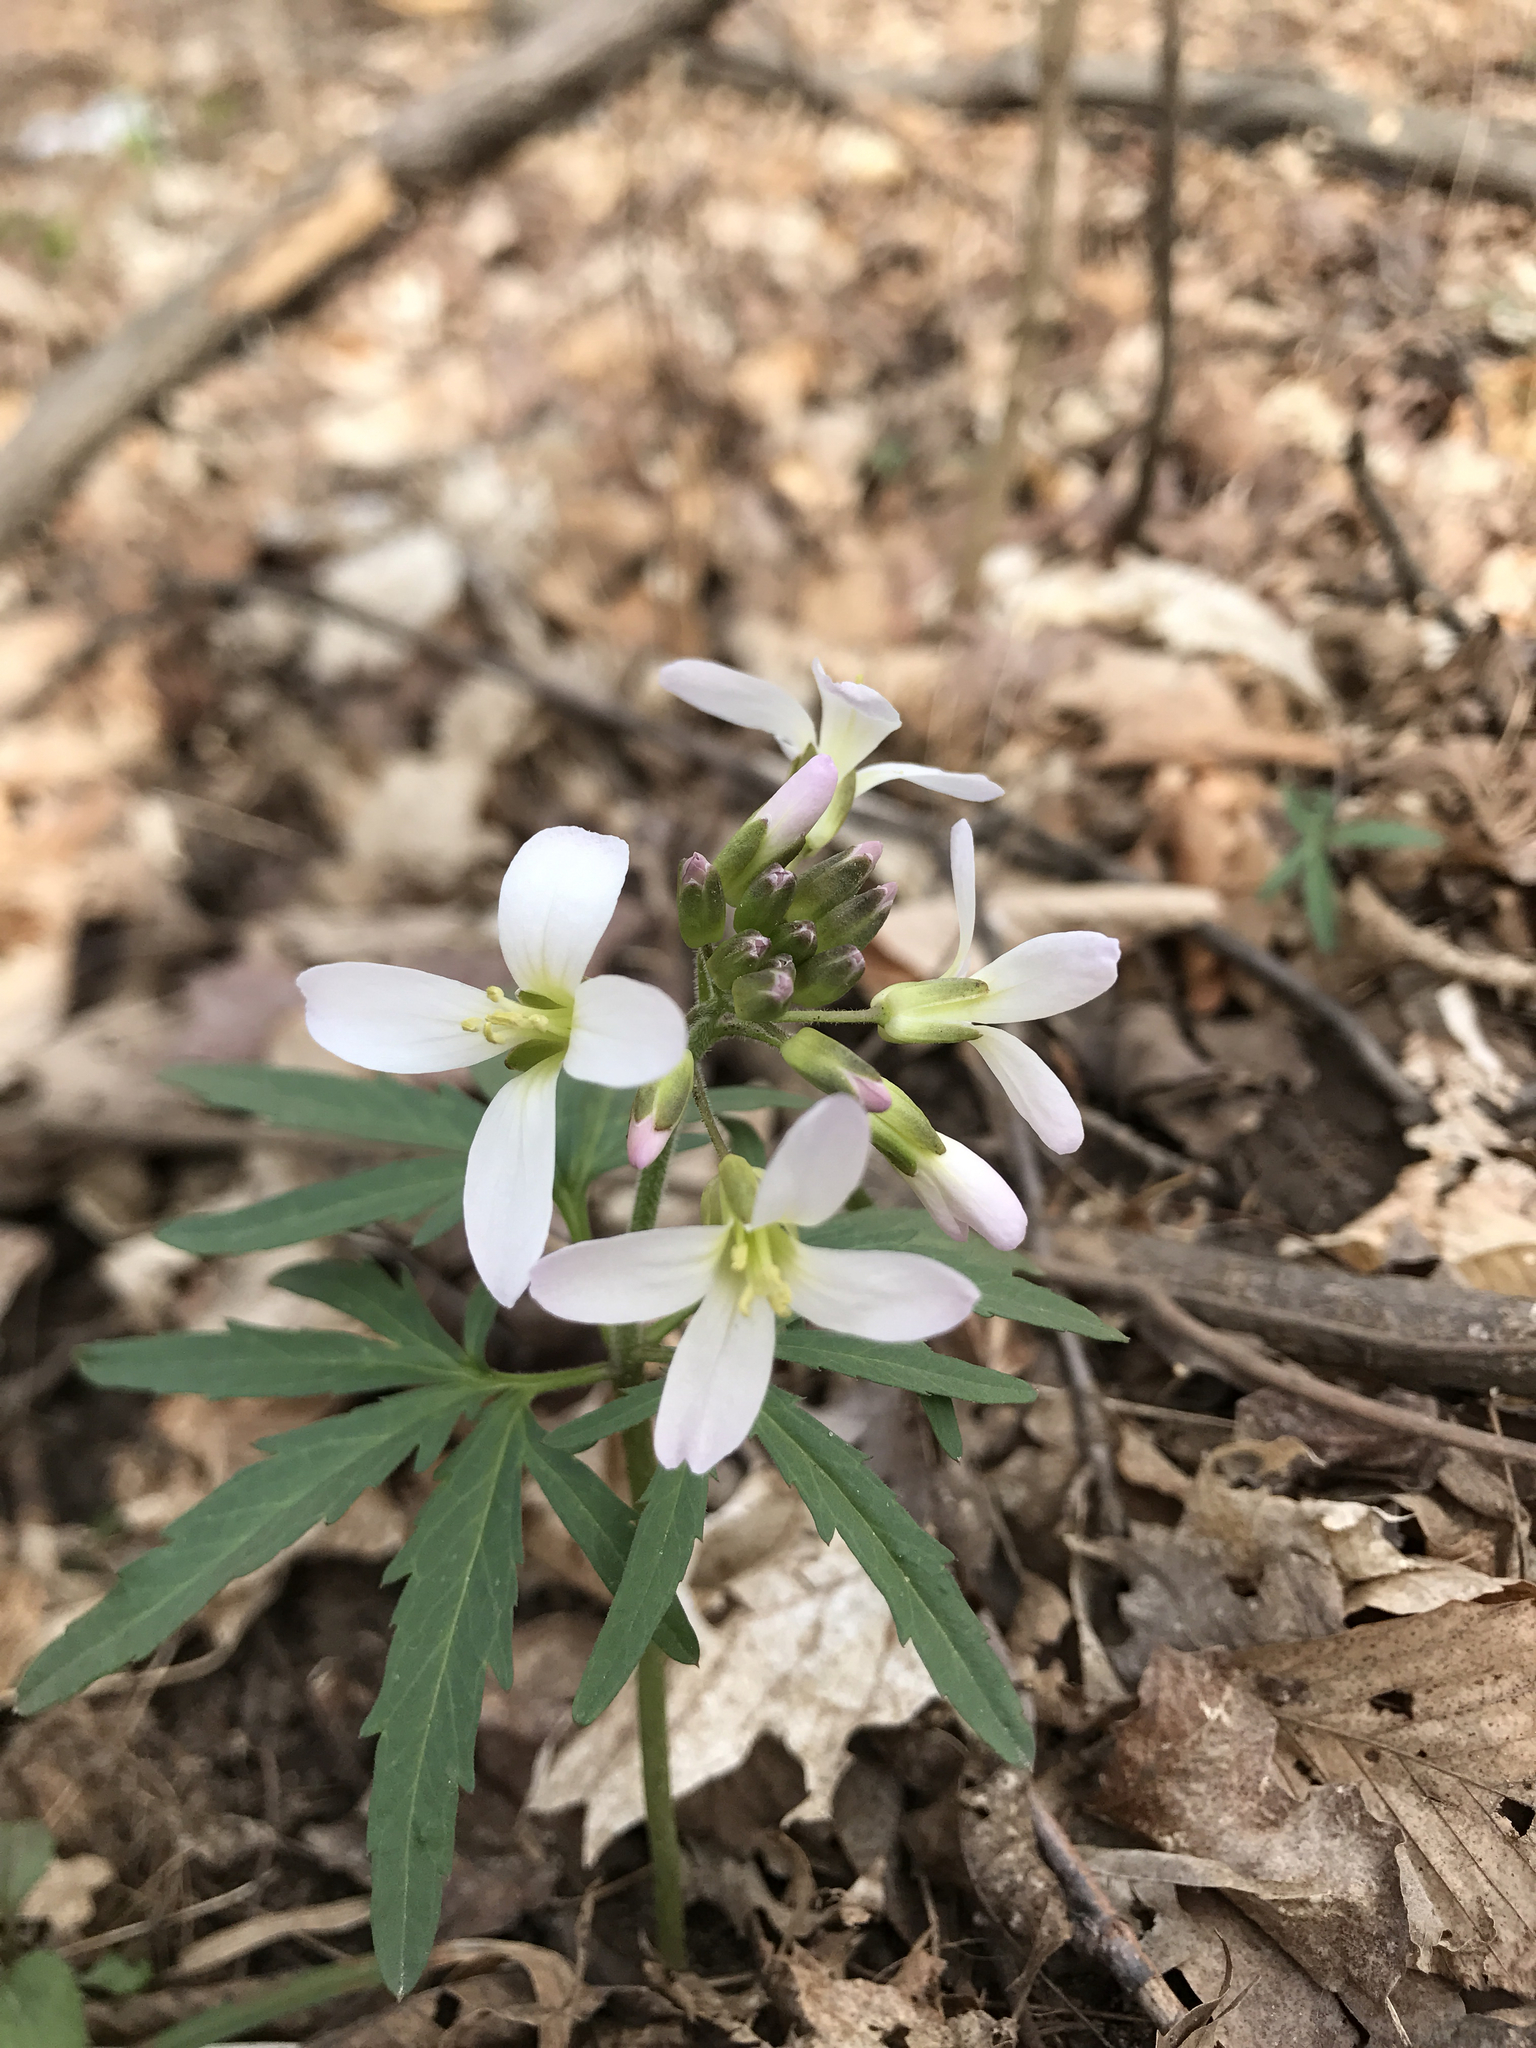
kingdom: Plantae
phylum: Tracheophyta
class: Magnoliopsida
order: Brassicales
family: Brassicaceae
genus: Cardamine
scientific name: Cardamine concatenata
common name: Cut-leaf toothcup
